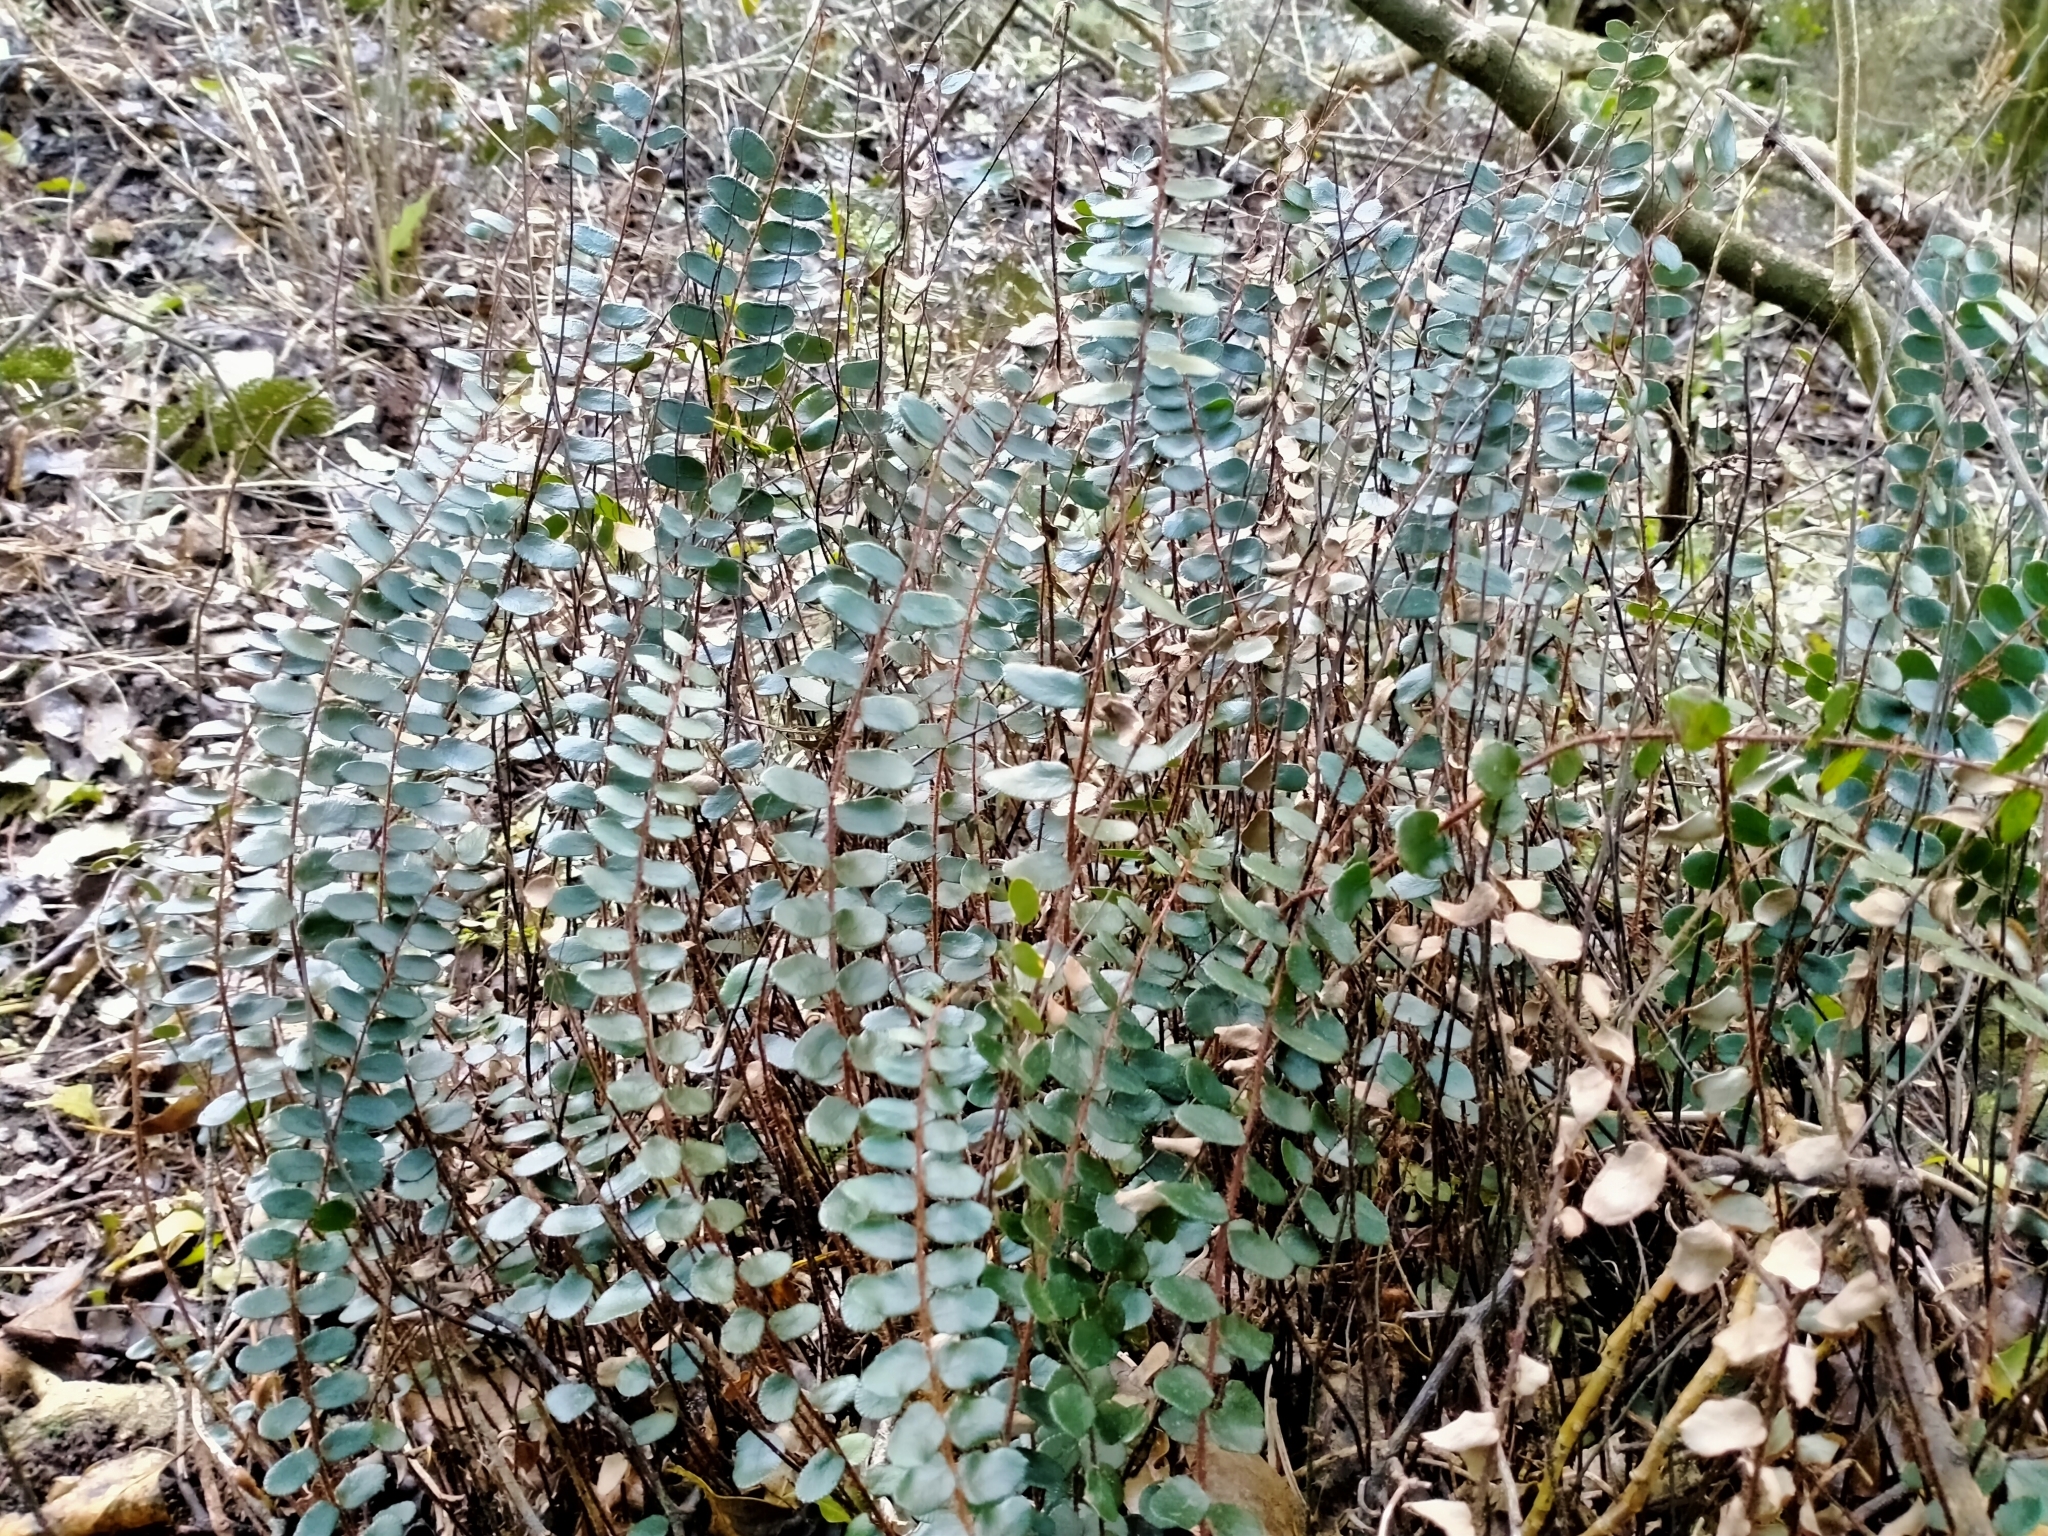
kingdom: Plantae
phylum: Tracheophyta
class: Polypodiopsida
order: Polypodiales
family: Pteridaceae
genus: Pellaea
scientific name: Pellaea rotundifolia
